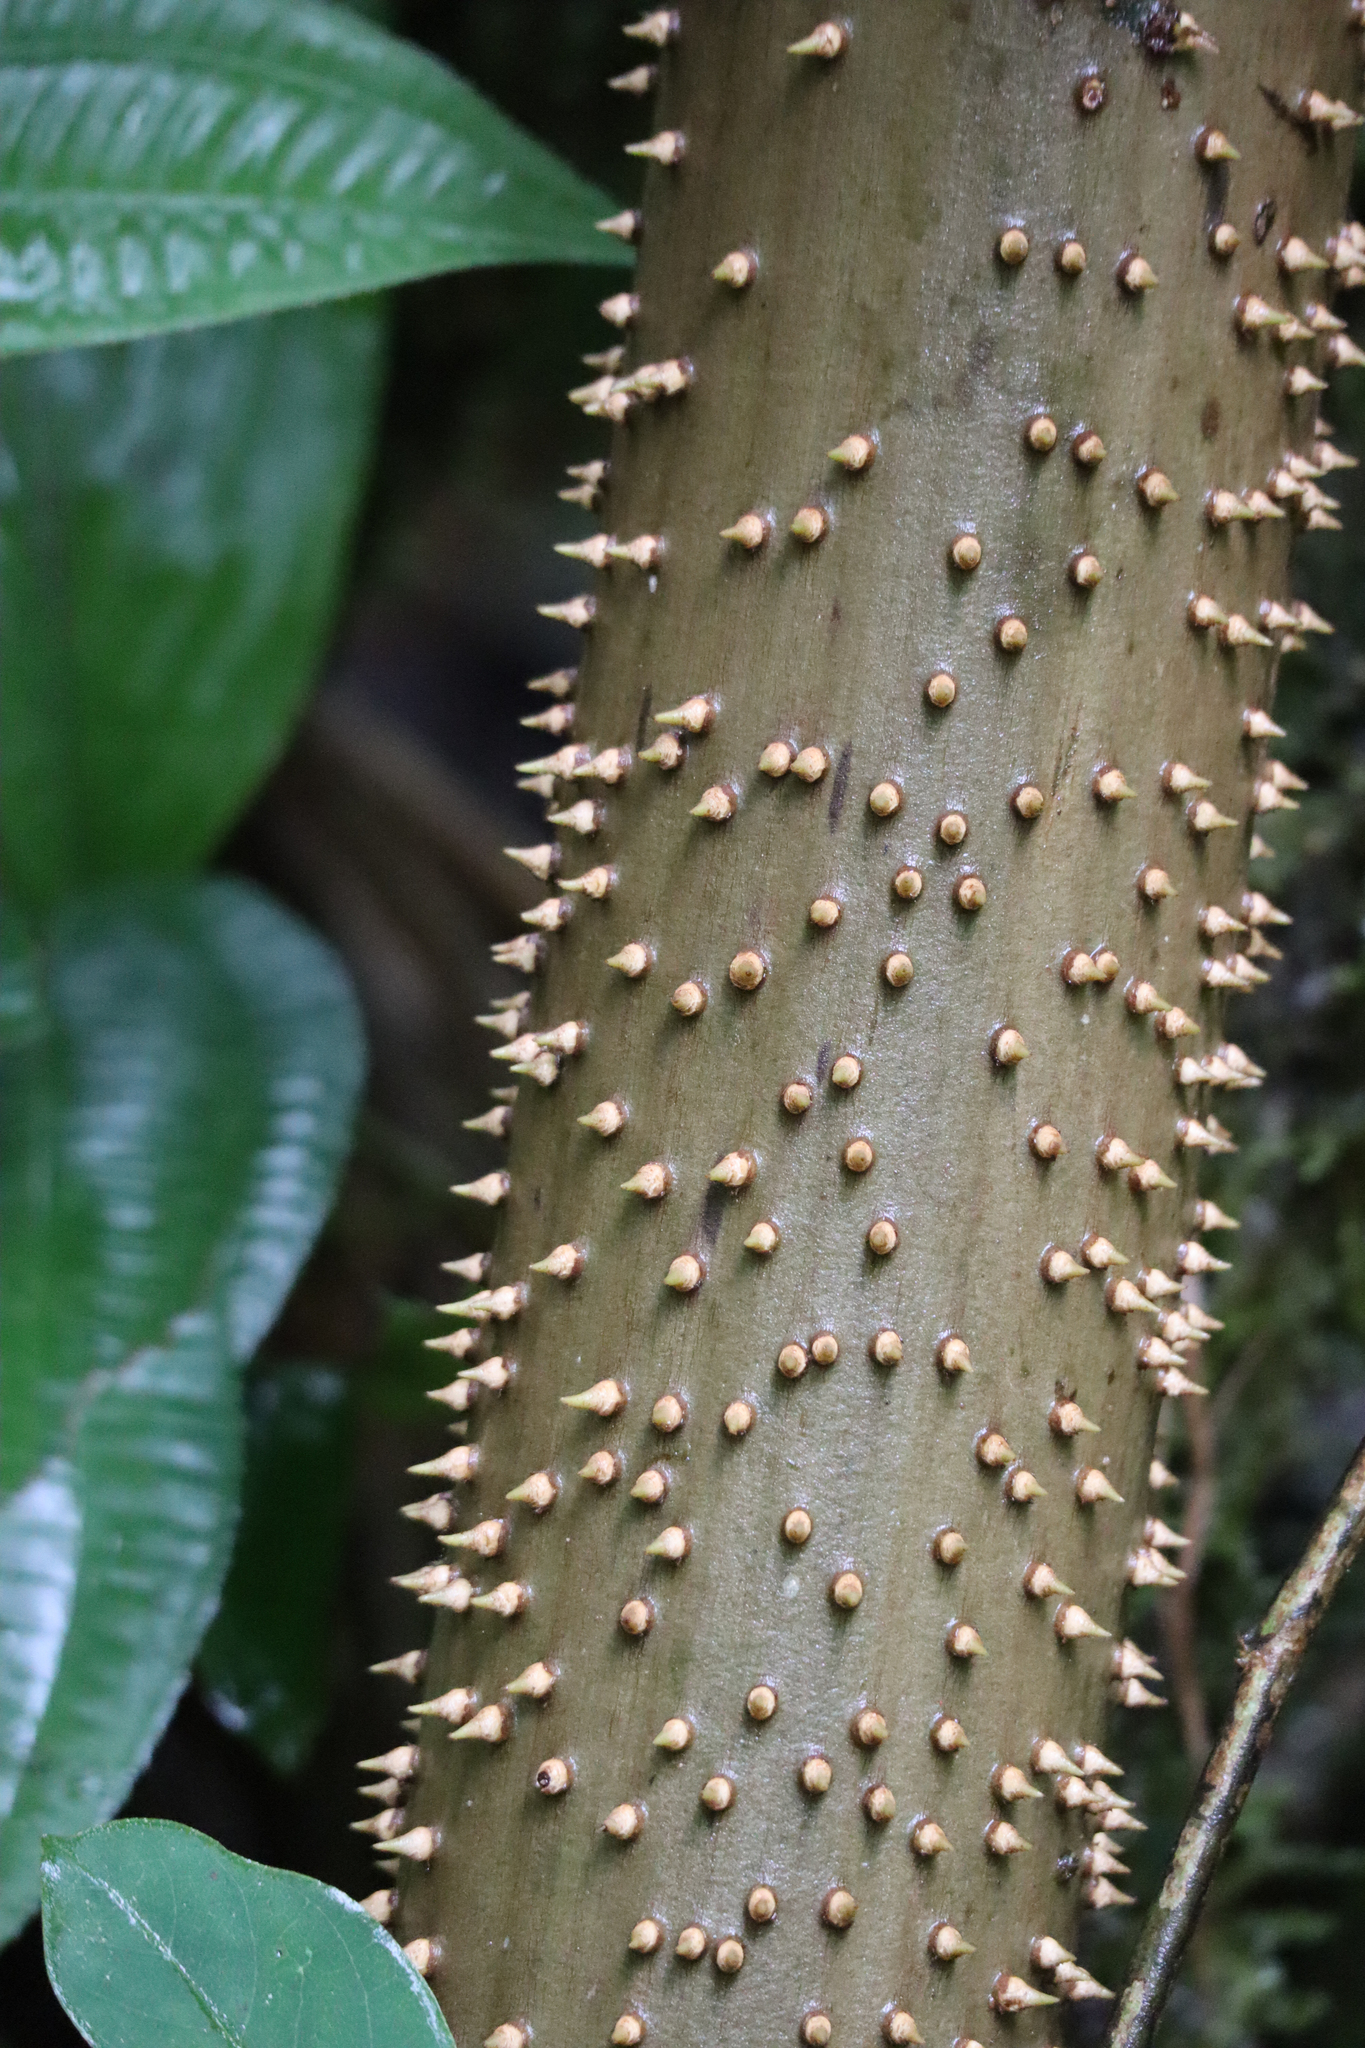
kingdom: Plantae
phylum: Tracheophyta
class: Liliopsida
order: Arecales
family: Arecaceae
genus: Socratea
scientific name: Socratea exorrhiza
